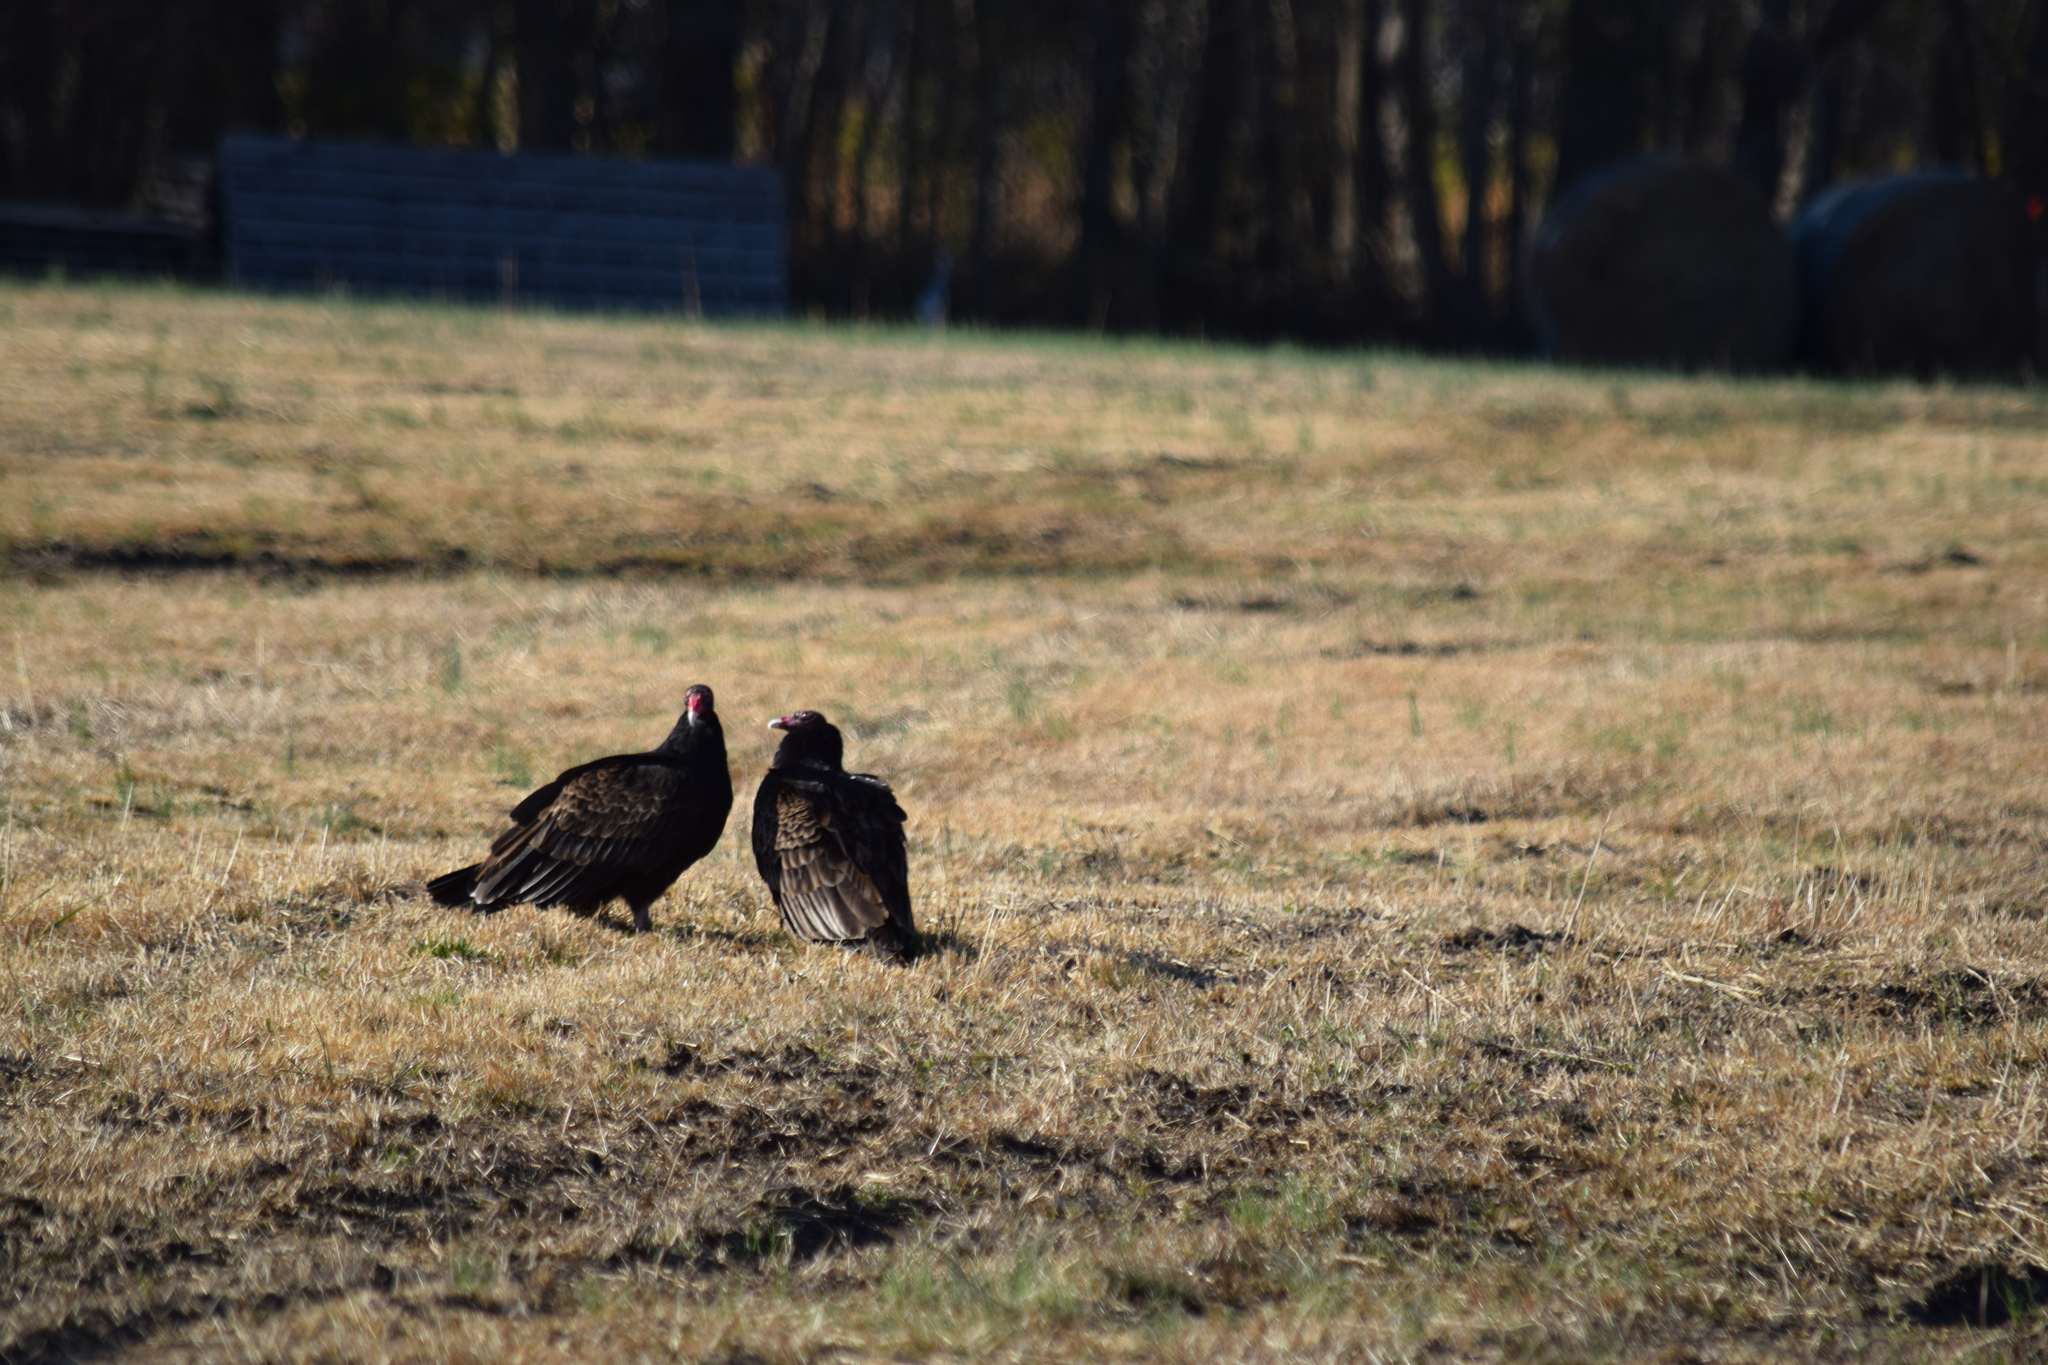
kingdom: Animalia
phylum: Chordata
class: Aves
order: Accipitriformes
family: Cathartidae
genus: Cathartes
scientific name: Cathartes aura
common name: Turkey vulture
